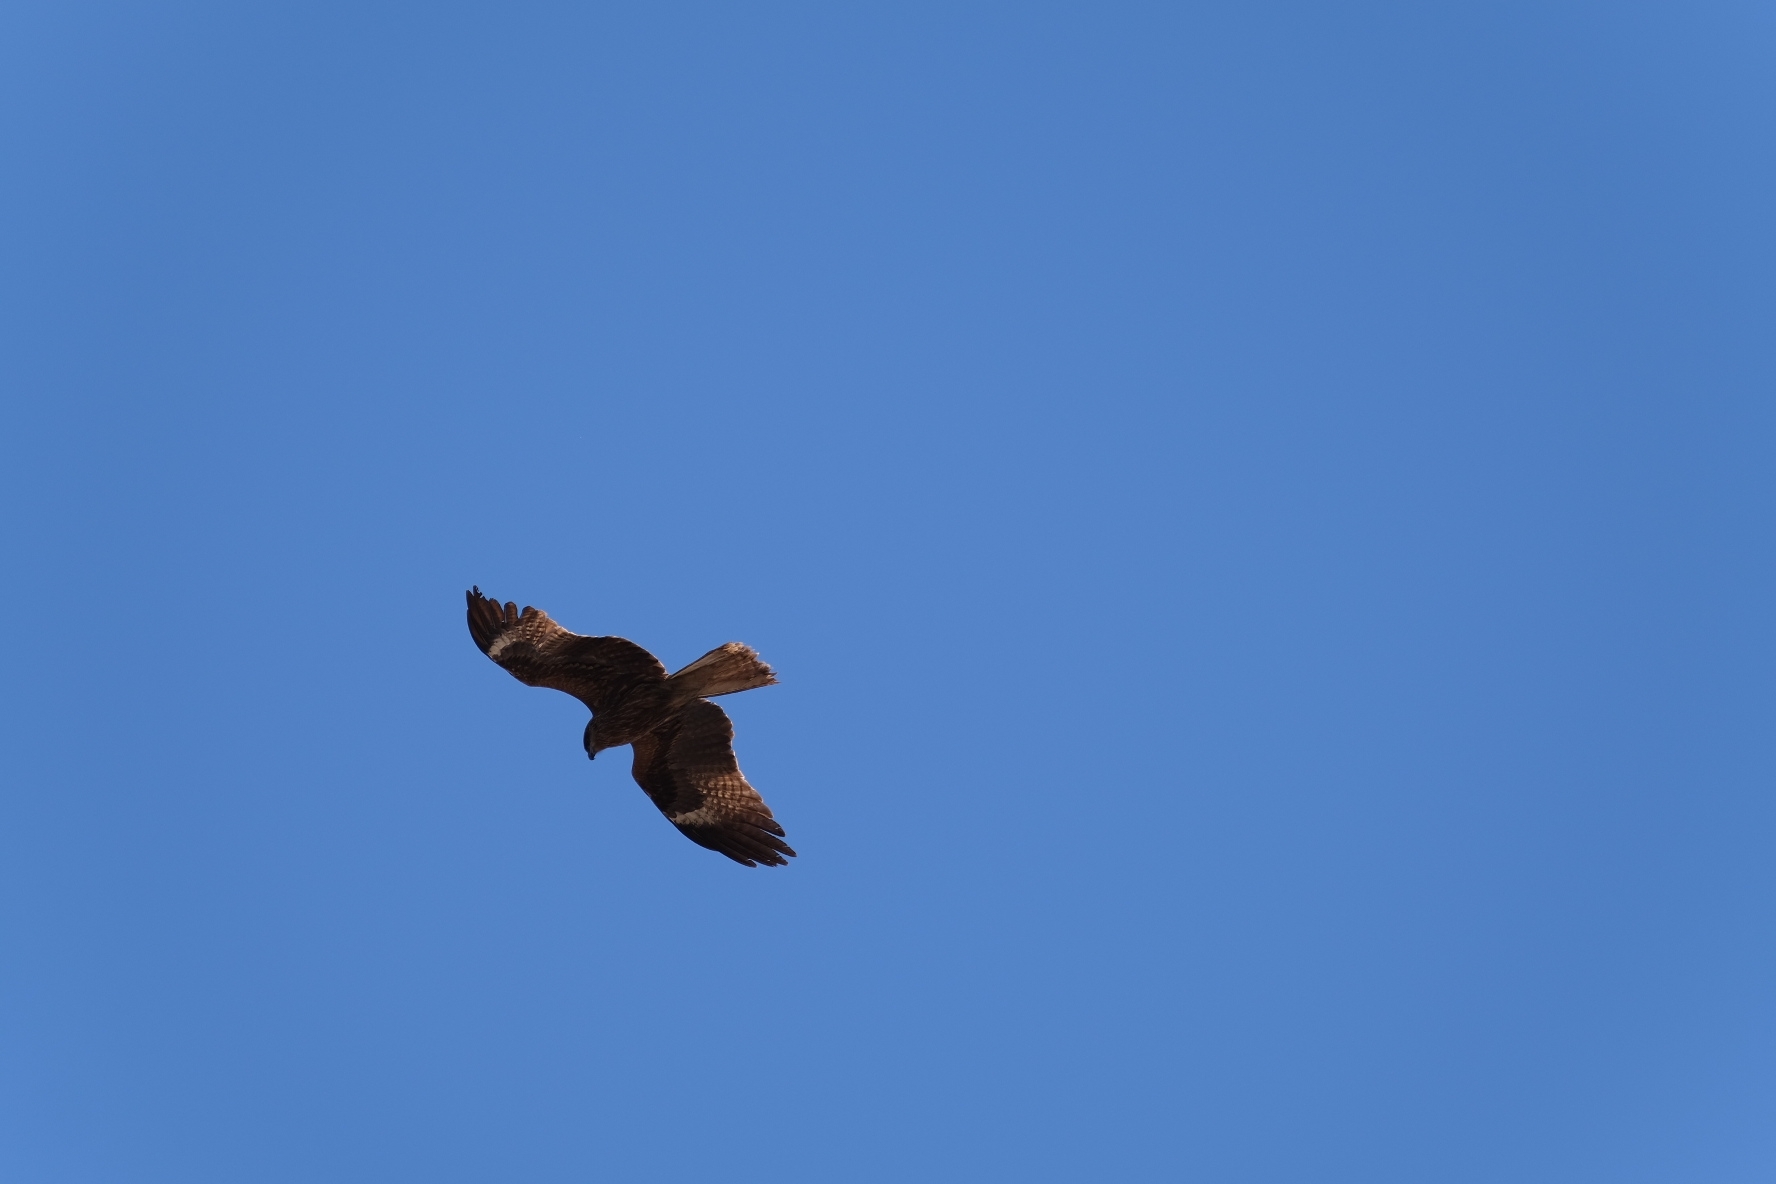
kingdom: Animalia
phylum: Chordata
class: Aves
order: Accipitriformes
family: Accipitridae
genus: Milvus
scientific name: Milvus migrans
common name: Black kite
